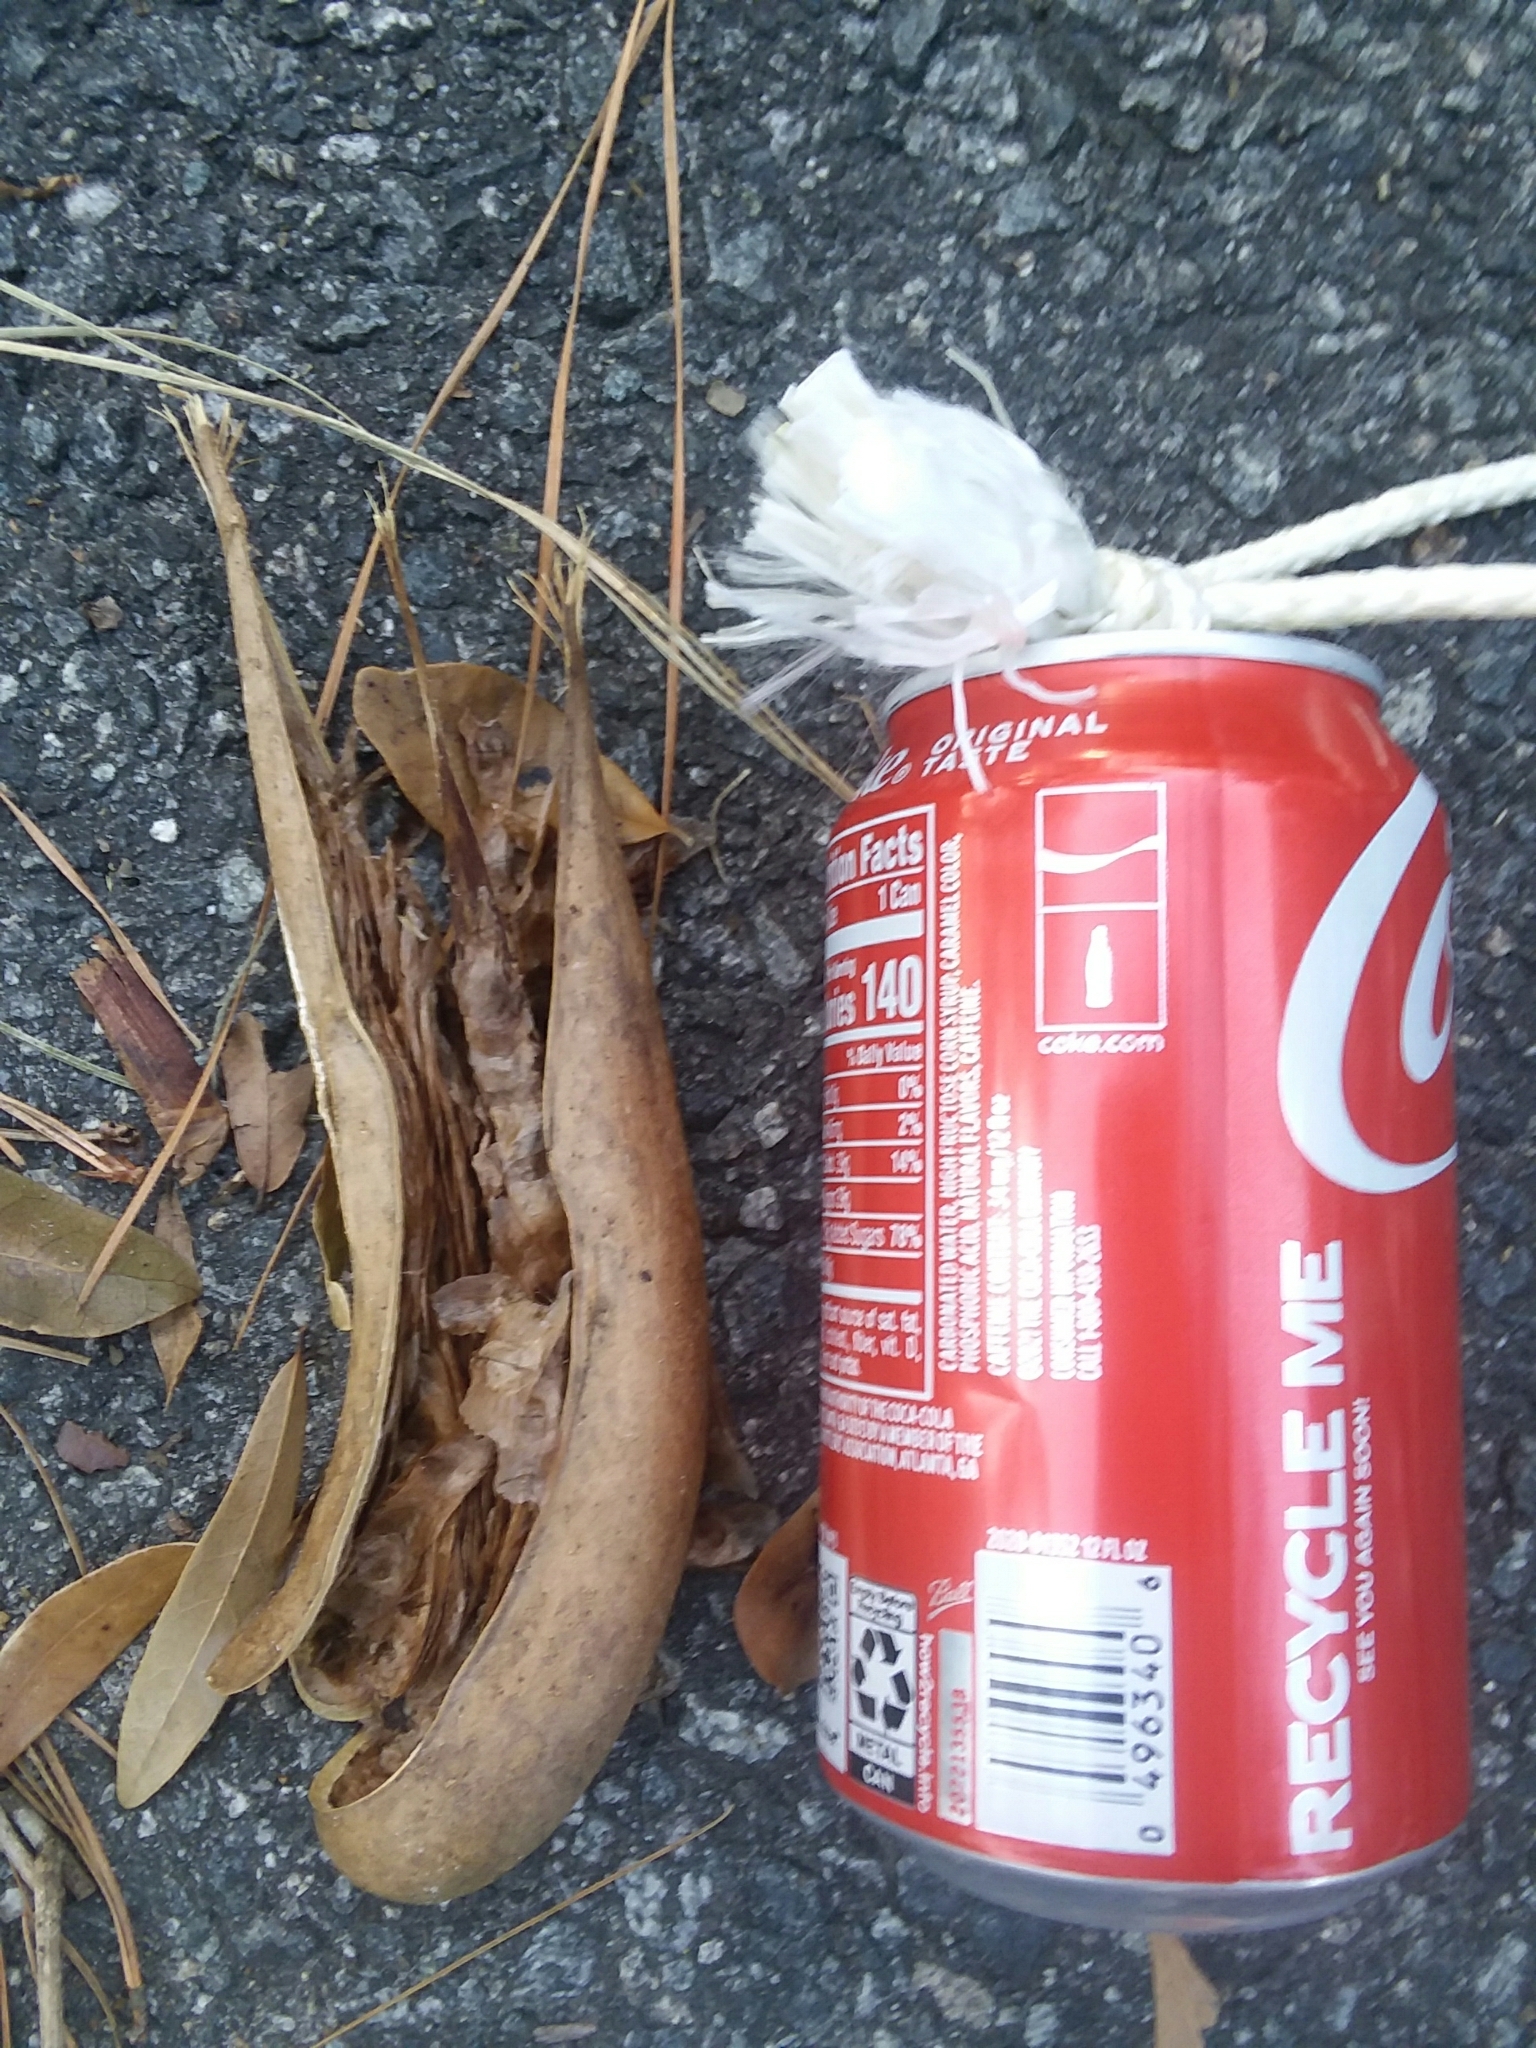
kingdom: Plantae
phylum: Tracheophyta
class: Magnoliopsida
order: Lamiales
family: Bignoniaceae
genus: Campsis
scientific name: Campsis radicans
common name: Trumpet-creeper
